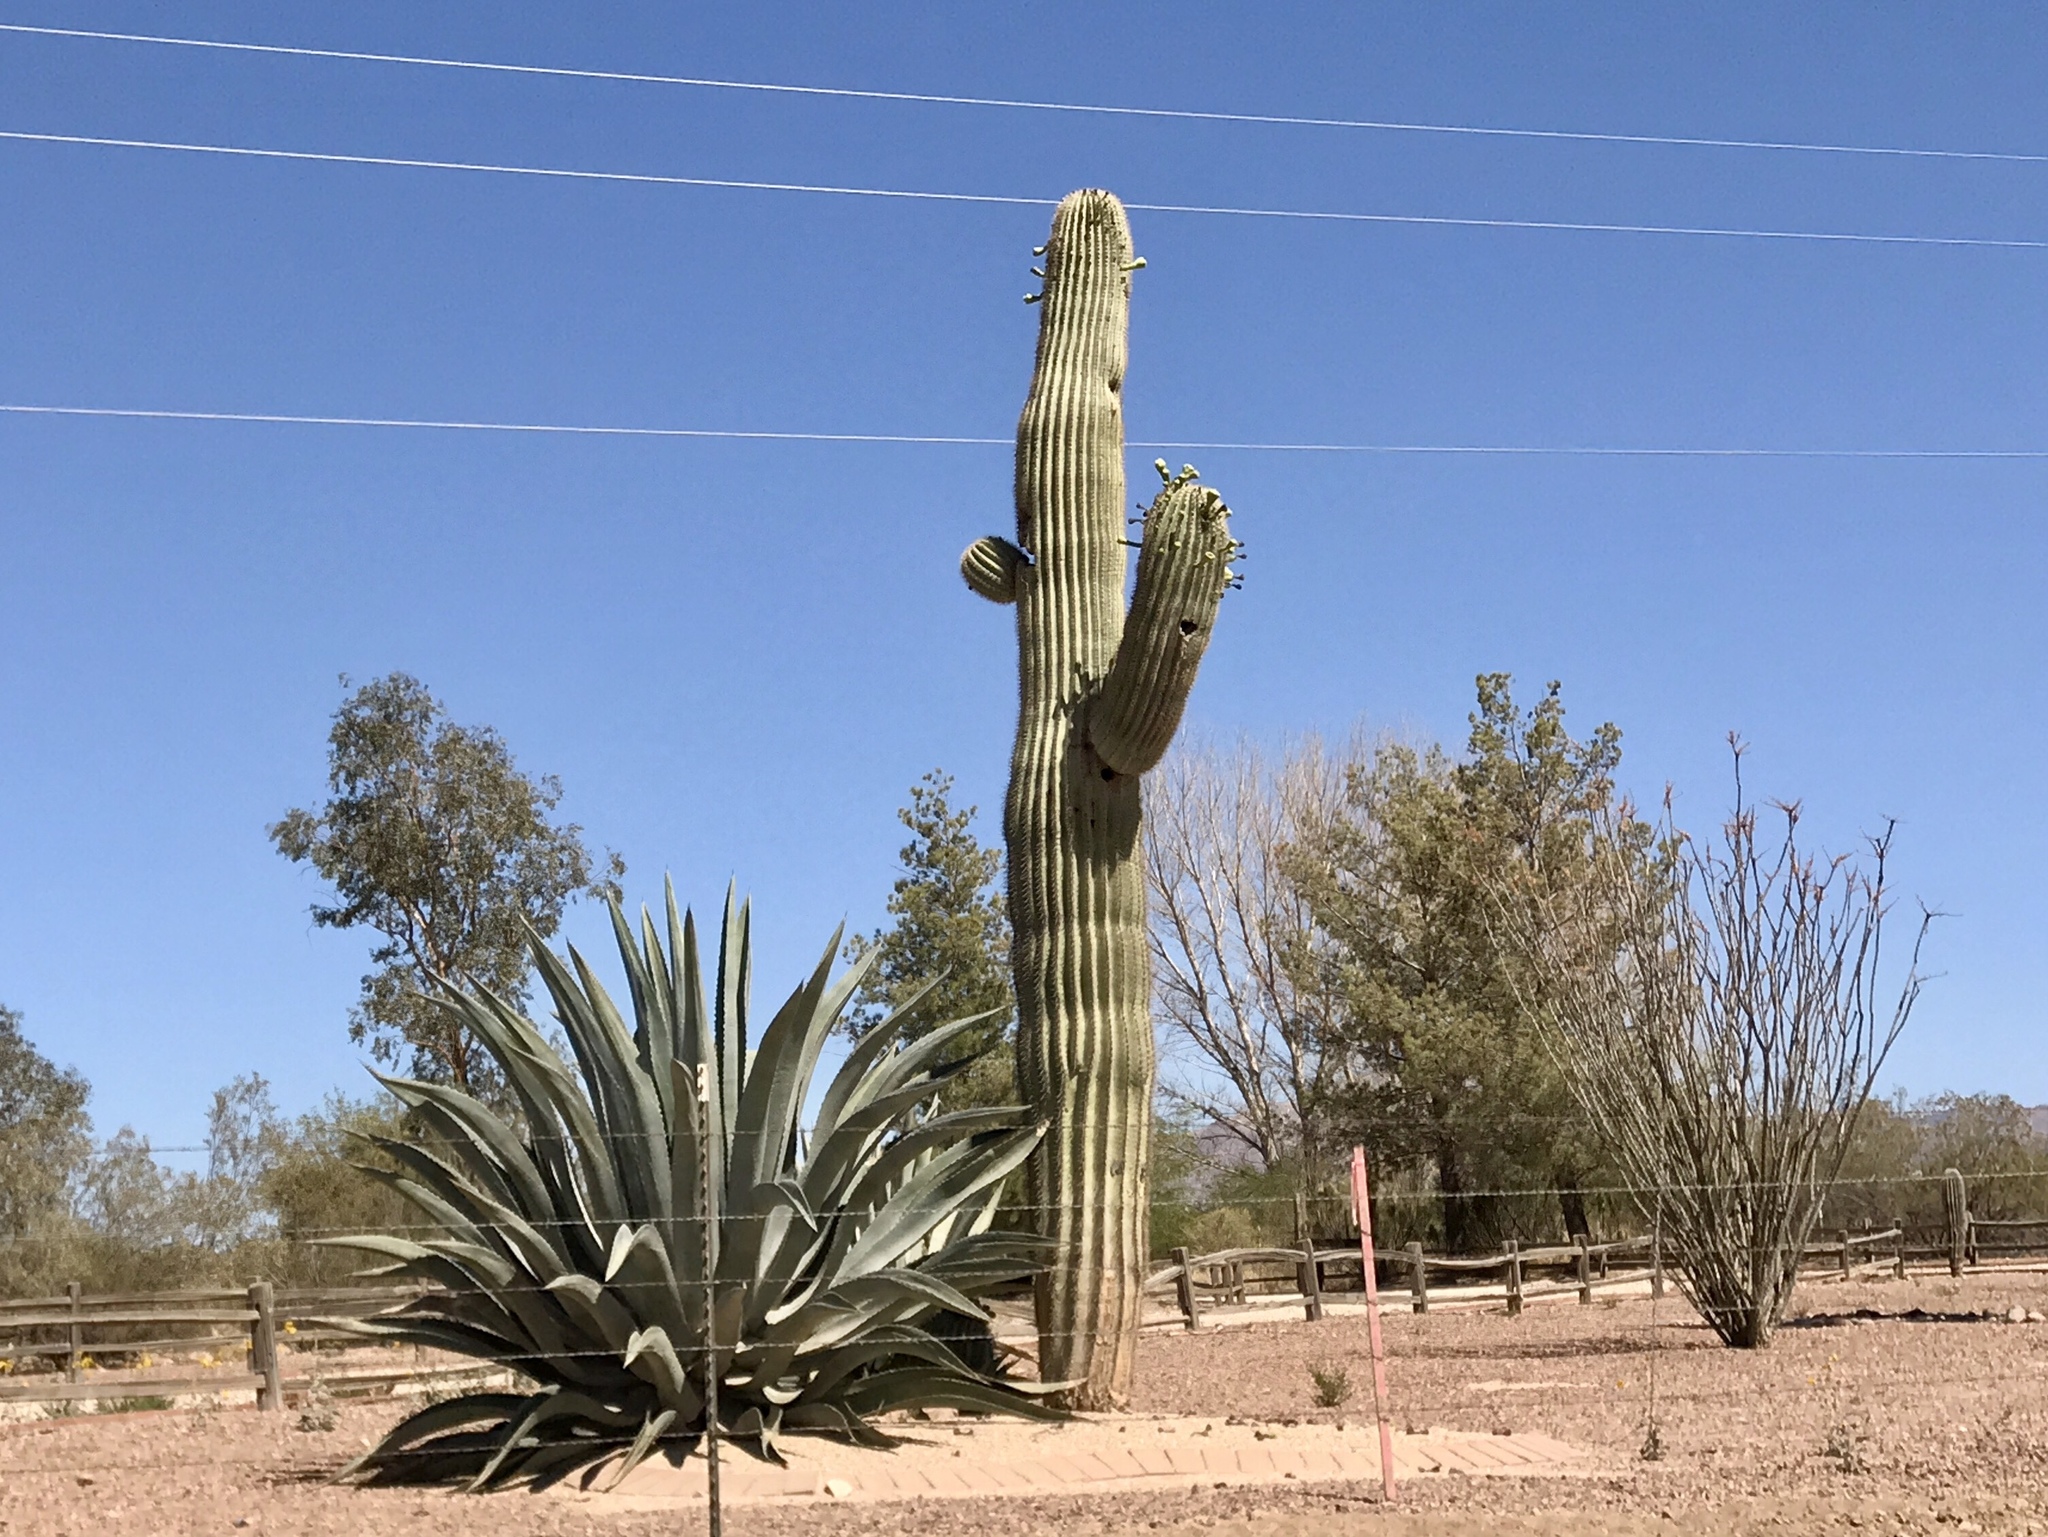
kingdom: Plantae
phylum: Tracheophyta
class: Magnoliopsida
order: Caryophyllales
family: Cactaceae
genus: Carnegiea
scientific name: Carnegiea gigantea
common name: Saguaro
